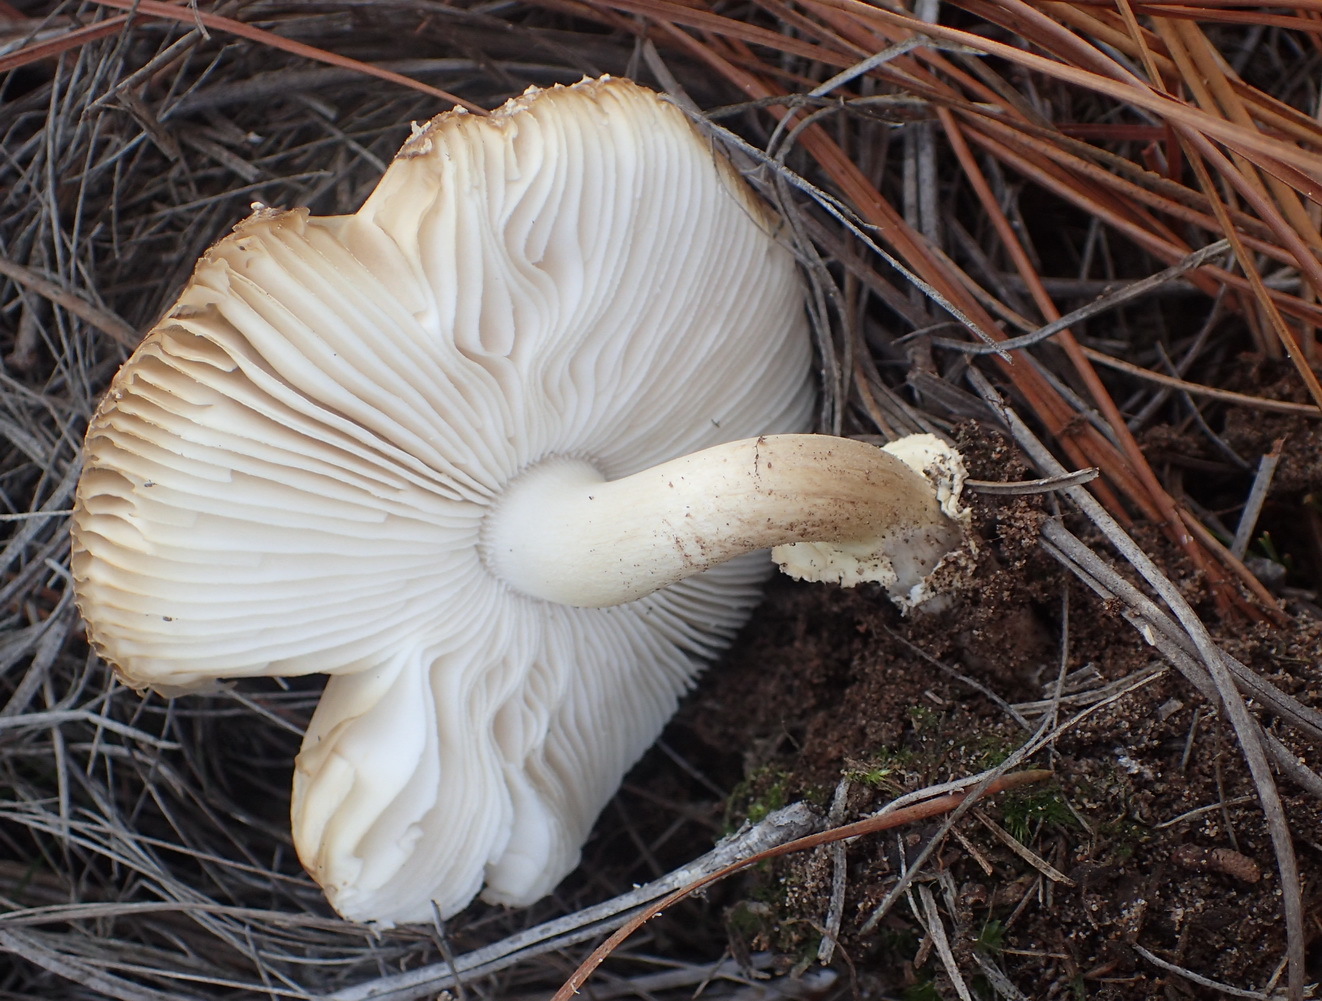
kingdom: Fungi
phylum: Basidiomycota
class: Agaricomycetes
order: Agaricales
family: Amanitaceae
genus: Amanita
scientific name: Amanita pantherina
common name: Panthercap
